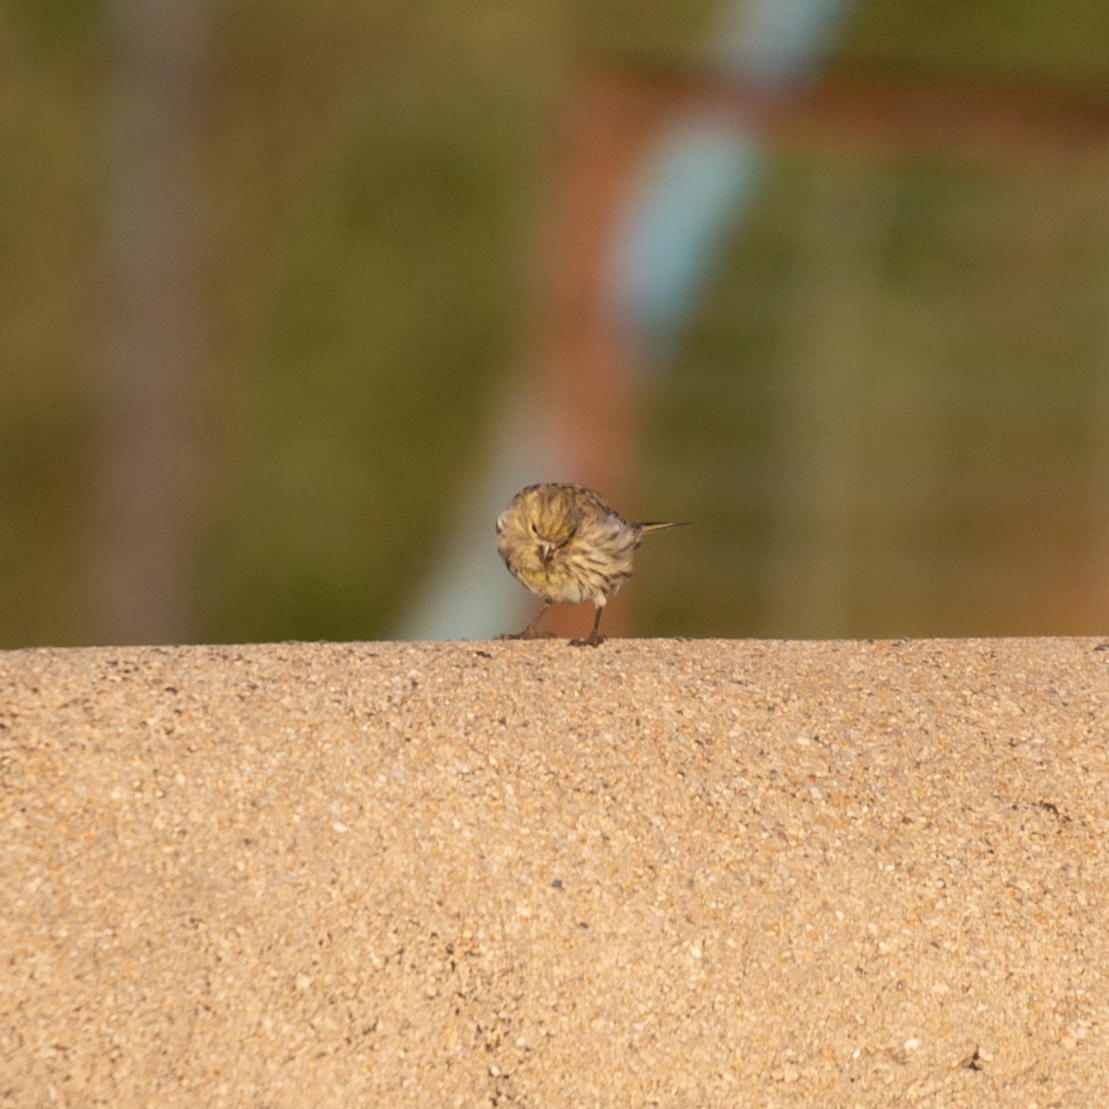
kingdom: Animalia
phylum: Chordata
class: Aves
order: Passeriformes
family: Fringillidae
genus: Serinus
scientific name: Serinus serinus
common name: European serin
